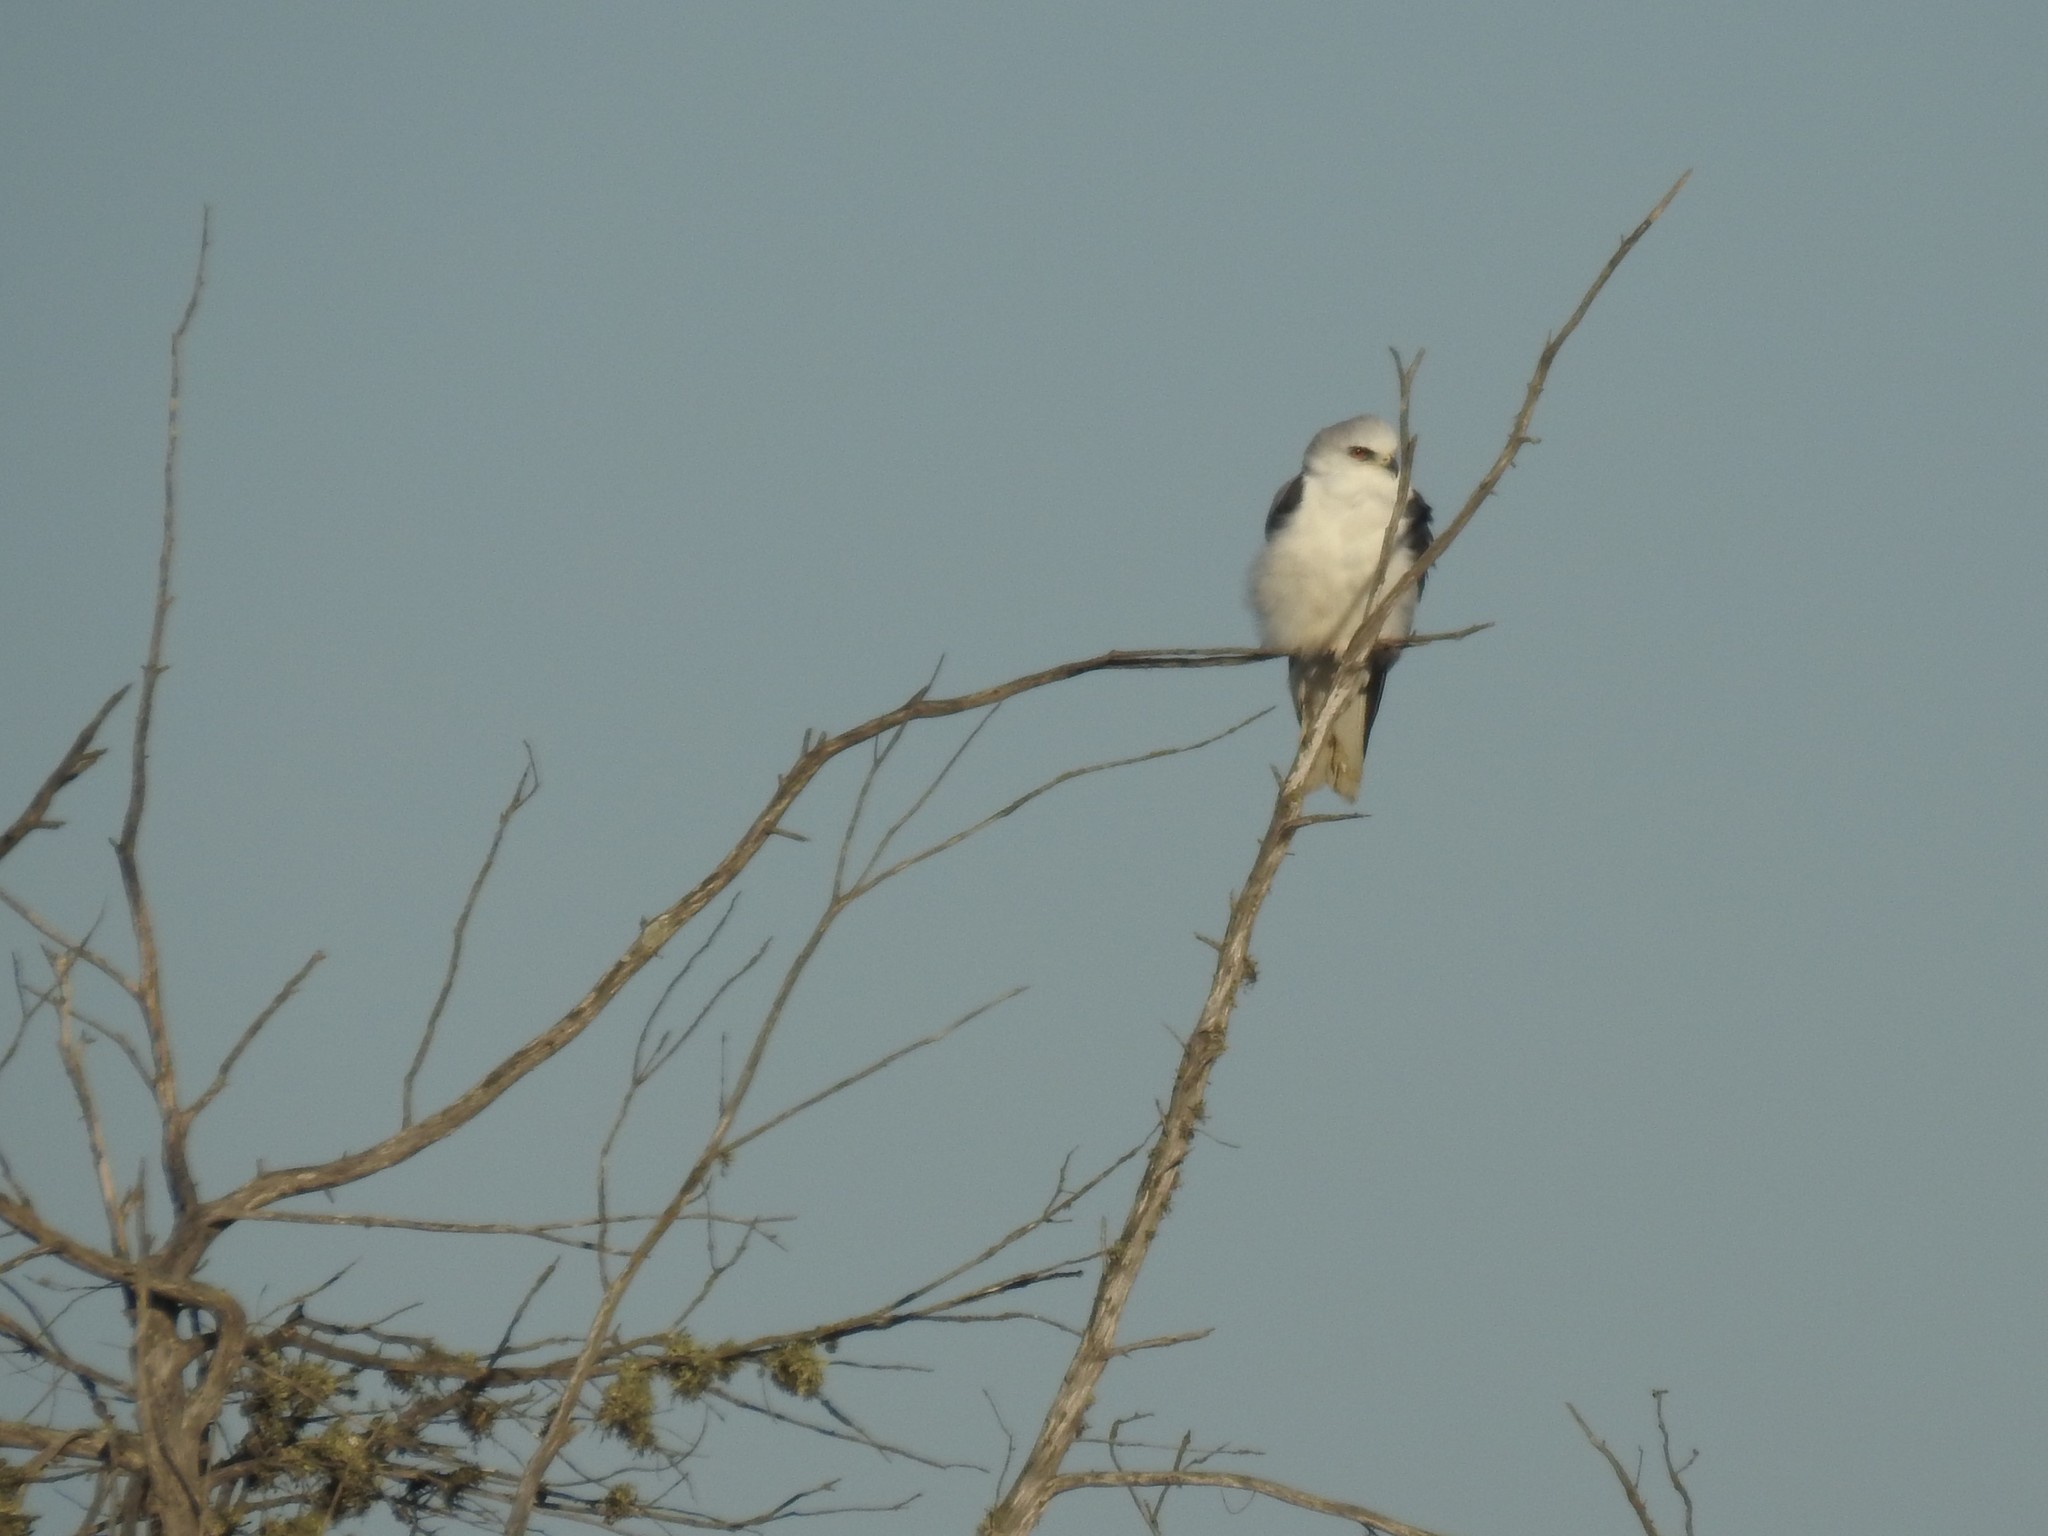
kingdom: Animalia
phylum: Chordata
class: Aves
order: Accipitriformes
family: Accipitridae
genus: Elanus
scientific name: Elanus leucurus
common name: White-tailed kite
